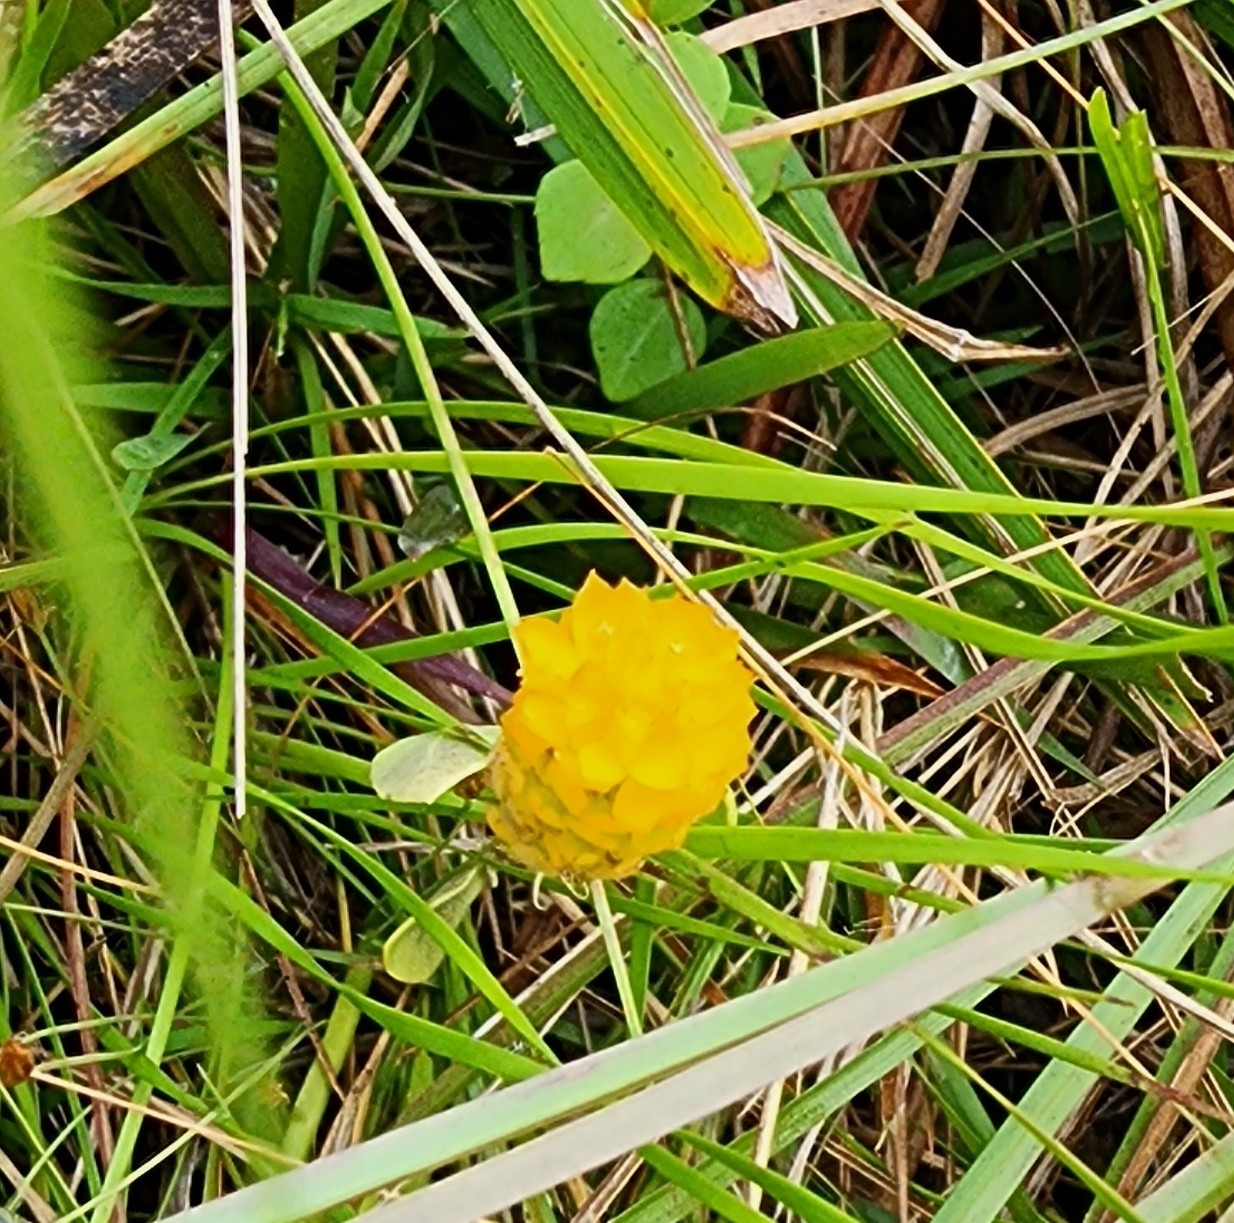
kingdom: Plantae
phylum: Tracheophyta
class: Magnoliopsida
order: Fabales
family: Polygalaceae
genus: Polygala
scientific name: Polygala lutea
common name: Orange milkwort
